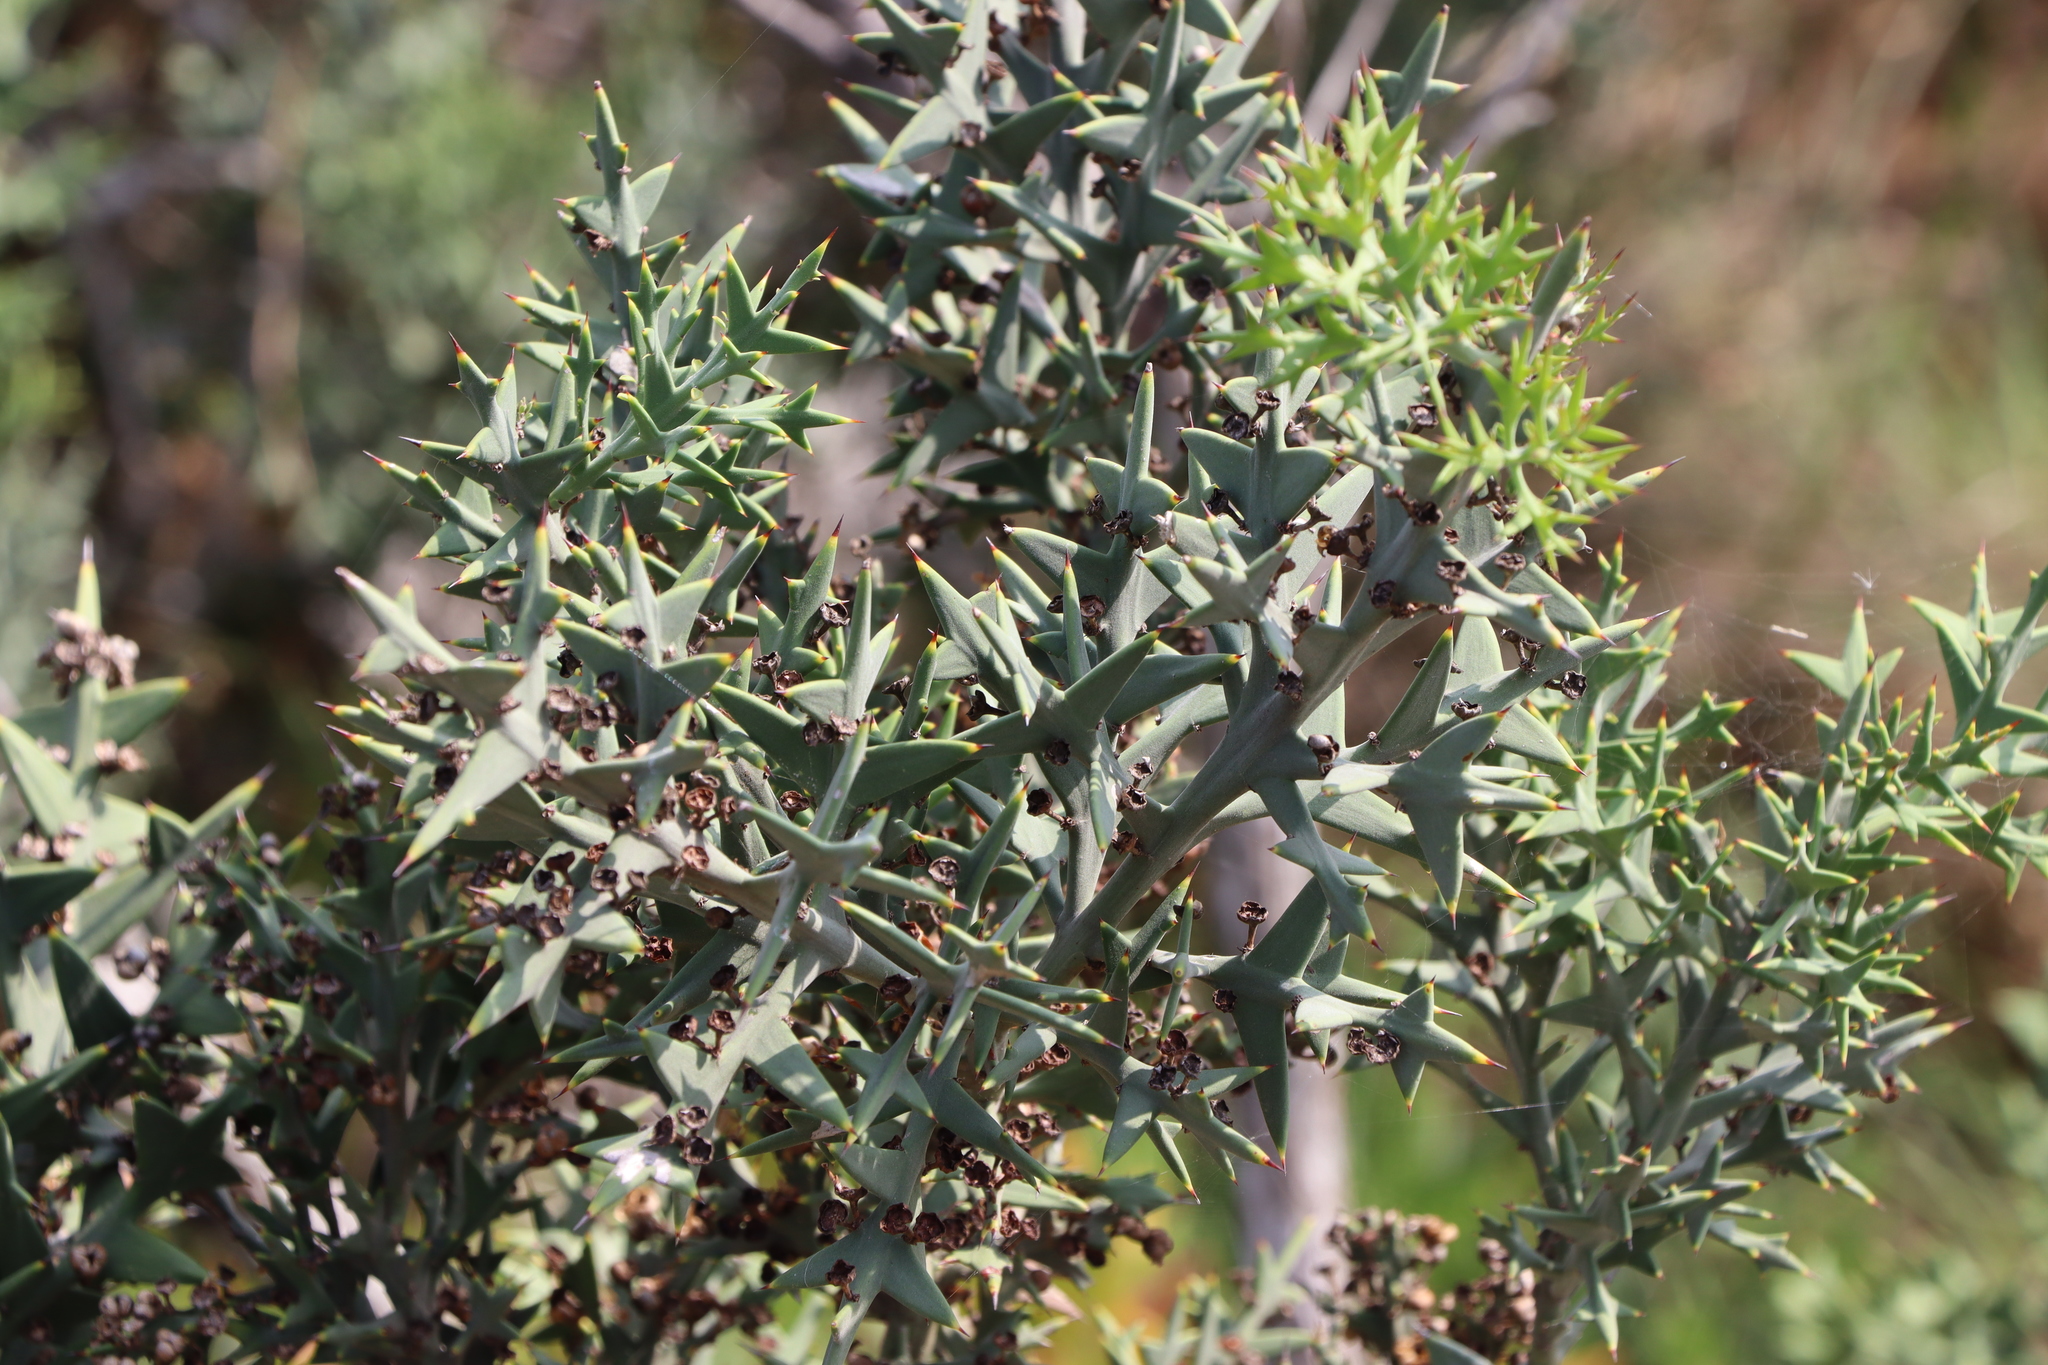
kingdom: Plantae
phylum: Tracheophyta
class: Magnoliopsida
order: Rosales
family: Rhamnaceae
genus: Colletia
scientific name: Colletia paradoxa
